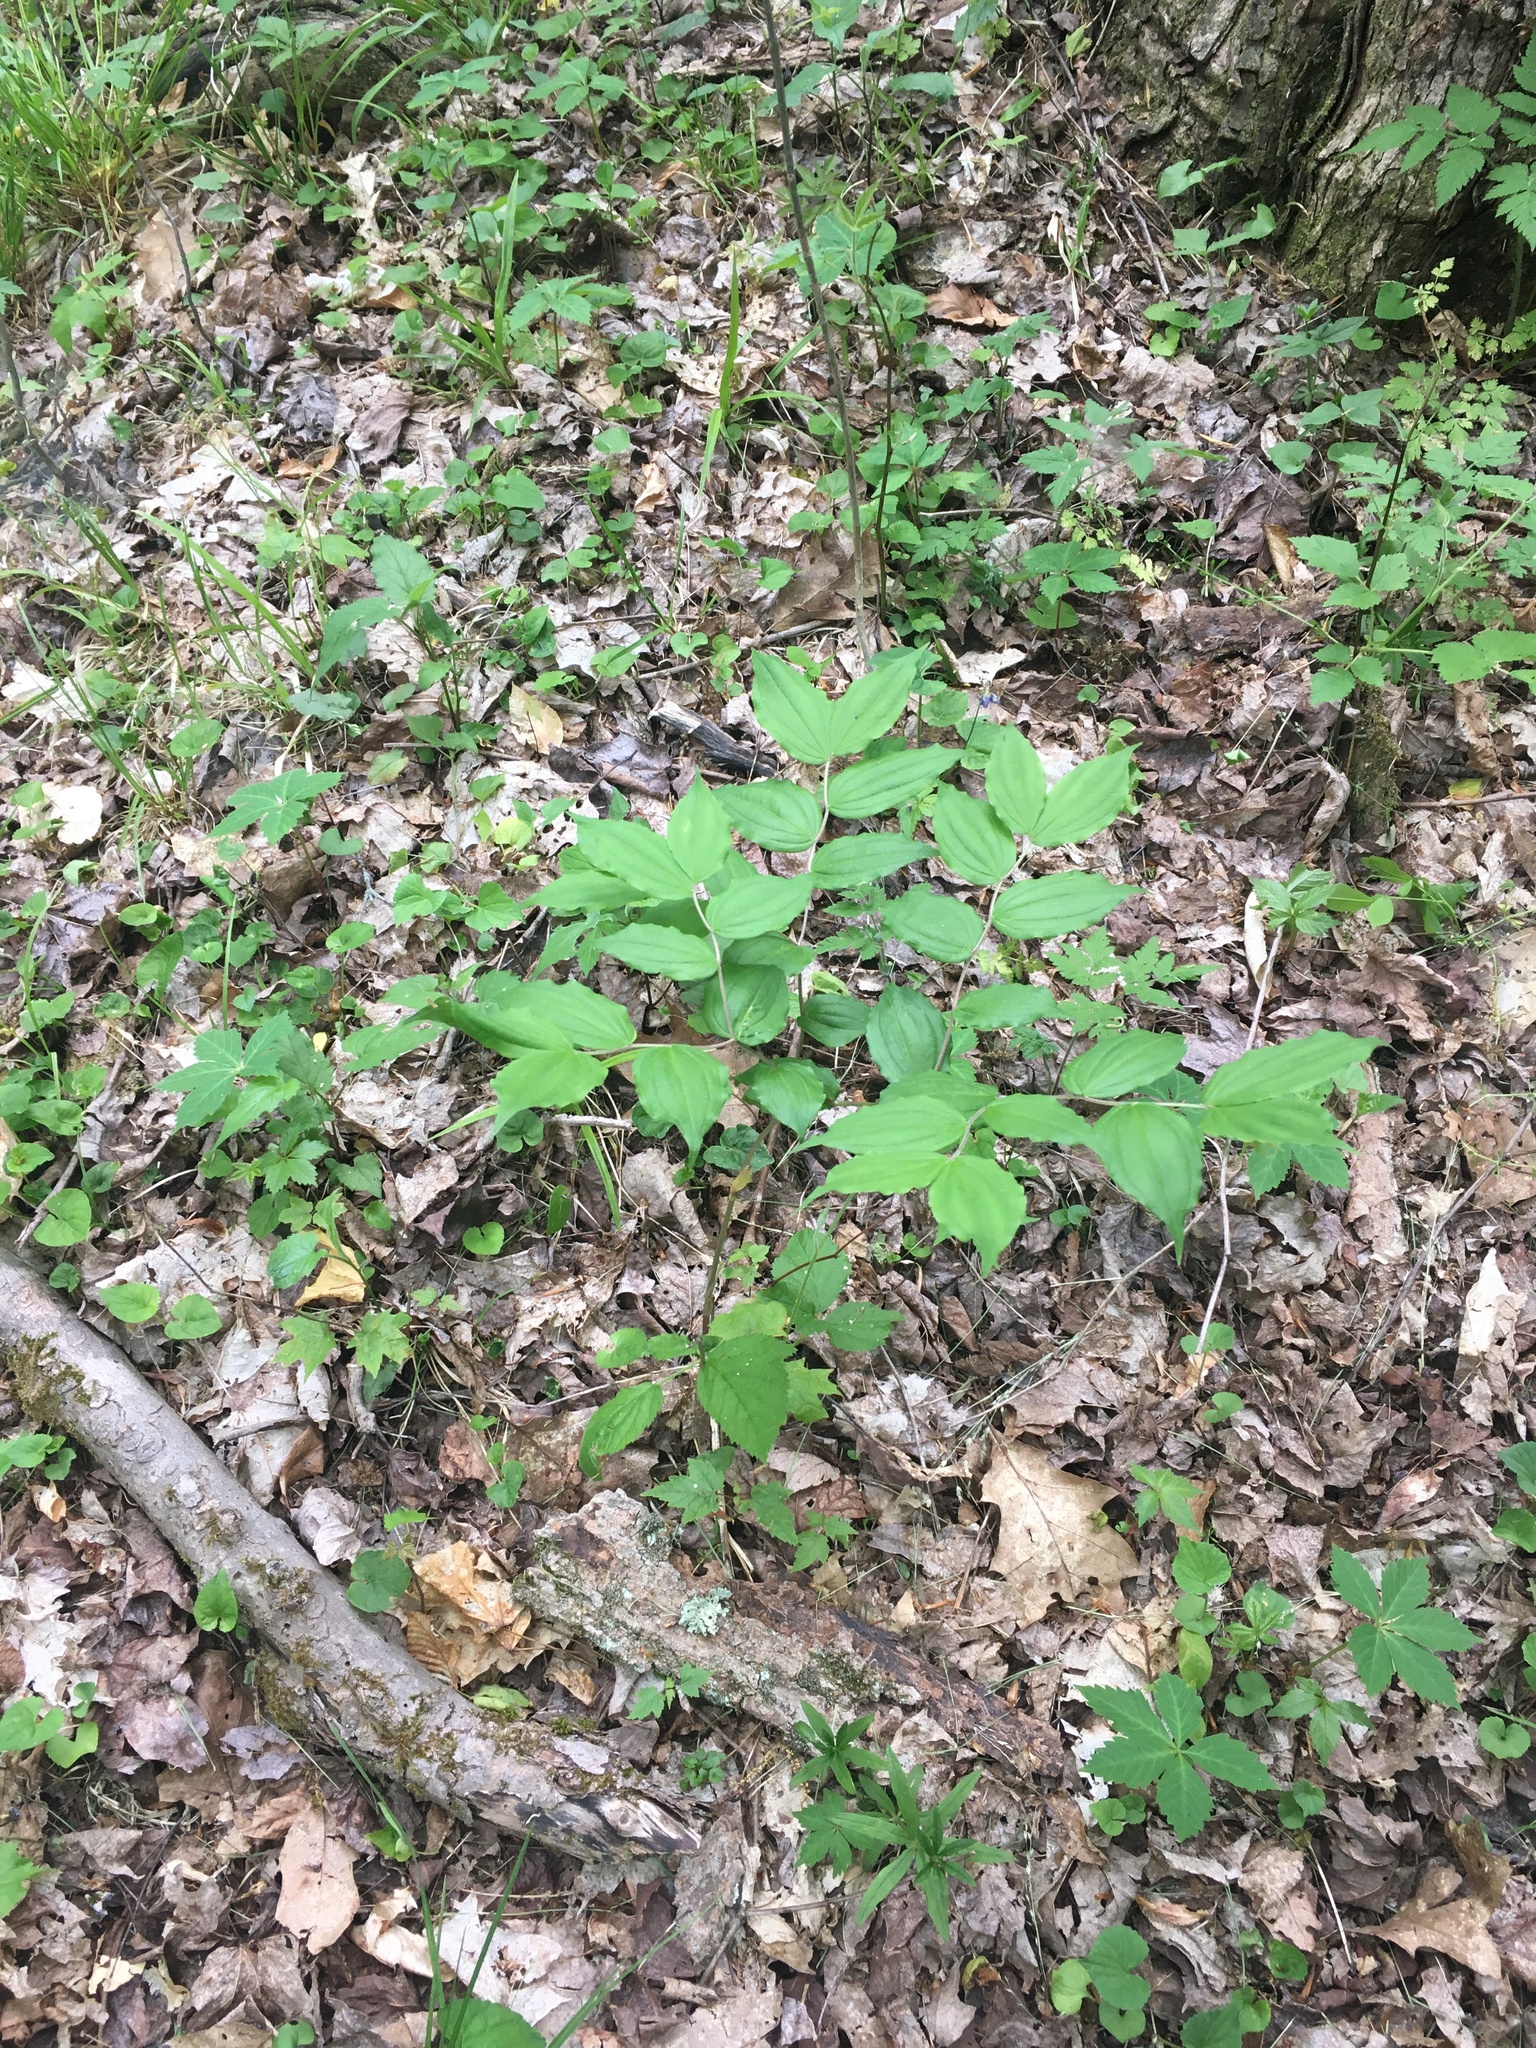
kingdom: Plantae
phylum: Tracheophyta
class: Liliopsida
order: Liliales
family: Liliaceae
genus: Prosartes
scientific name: Prosartes lanuginosa
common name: Hairy mandarin
